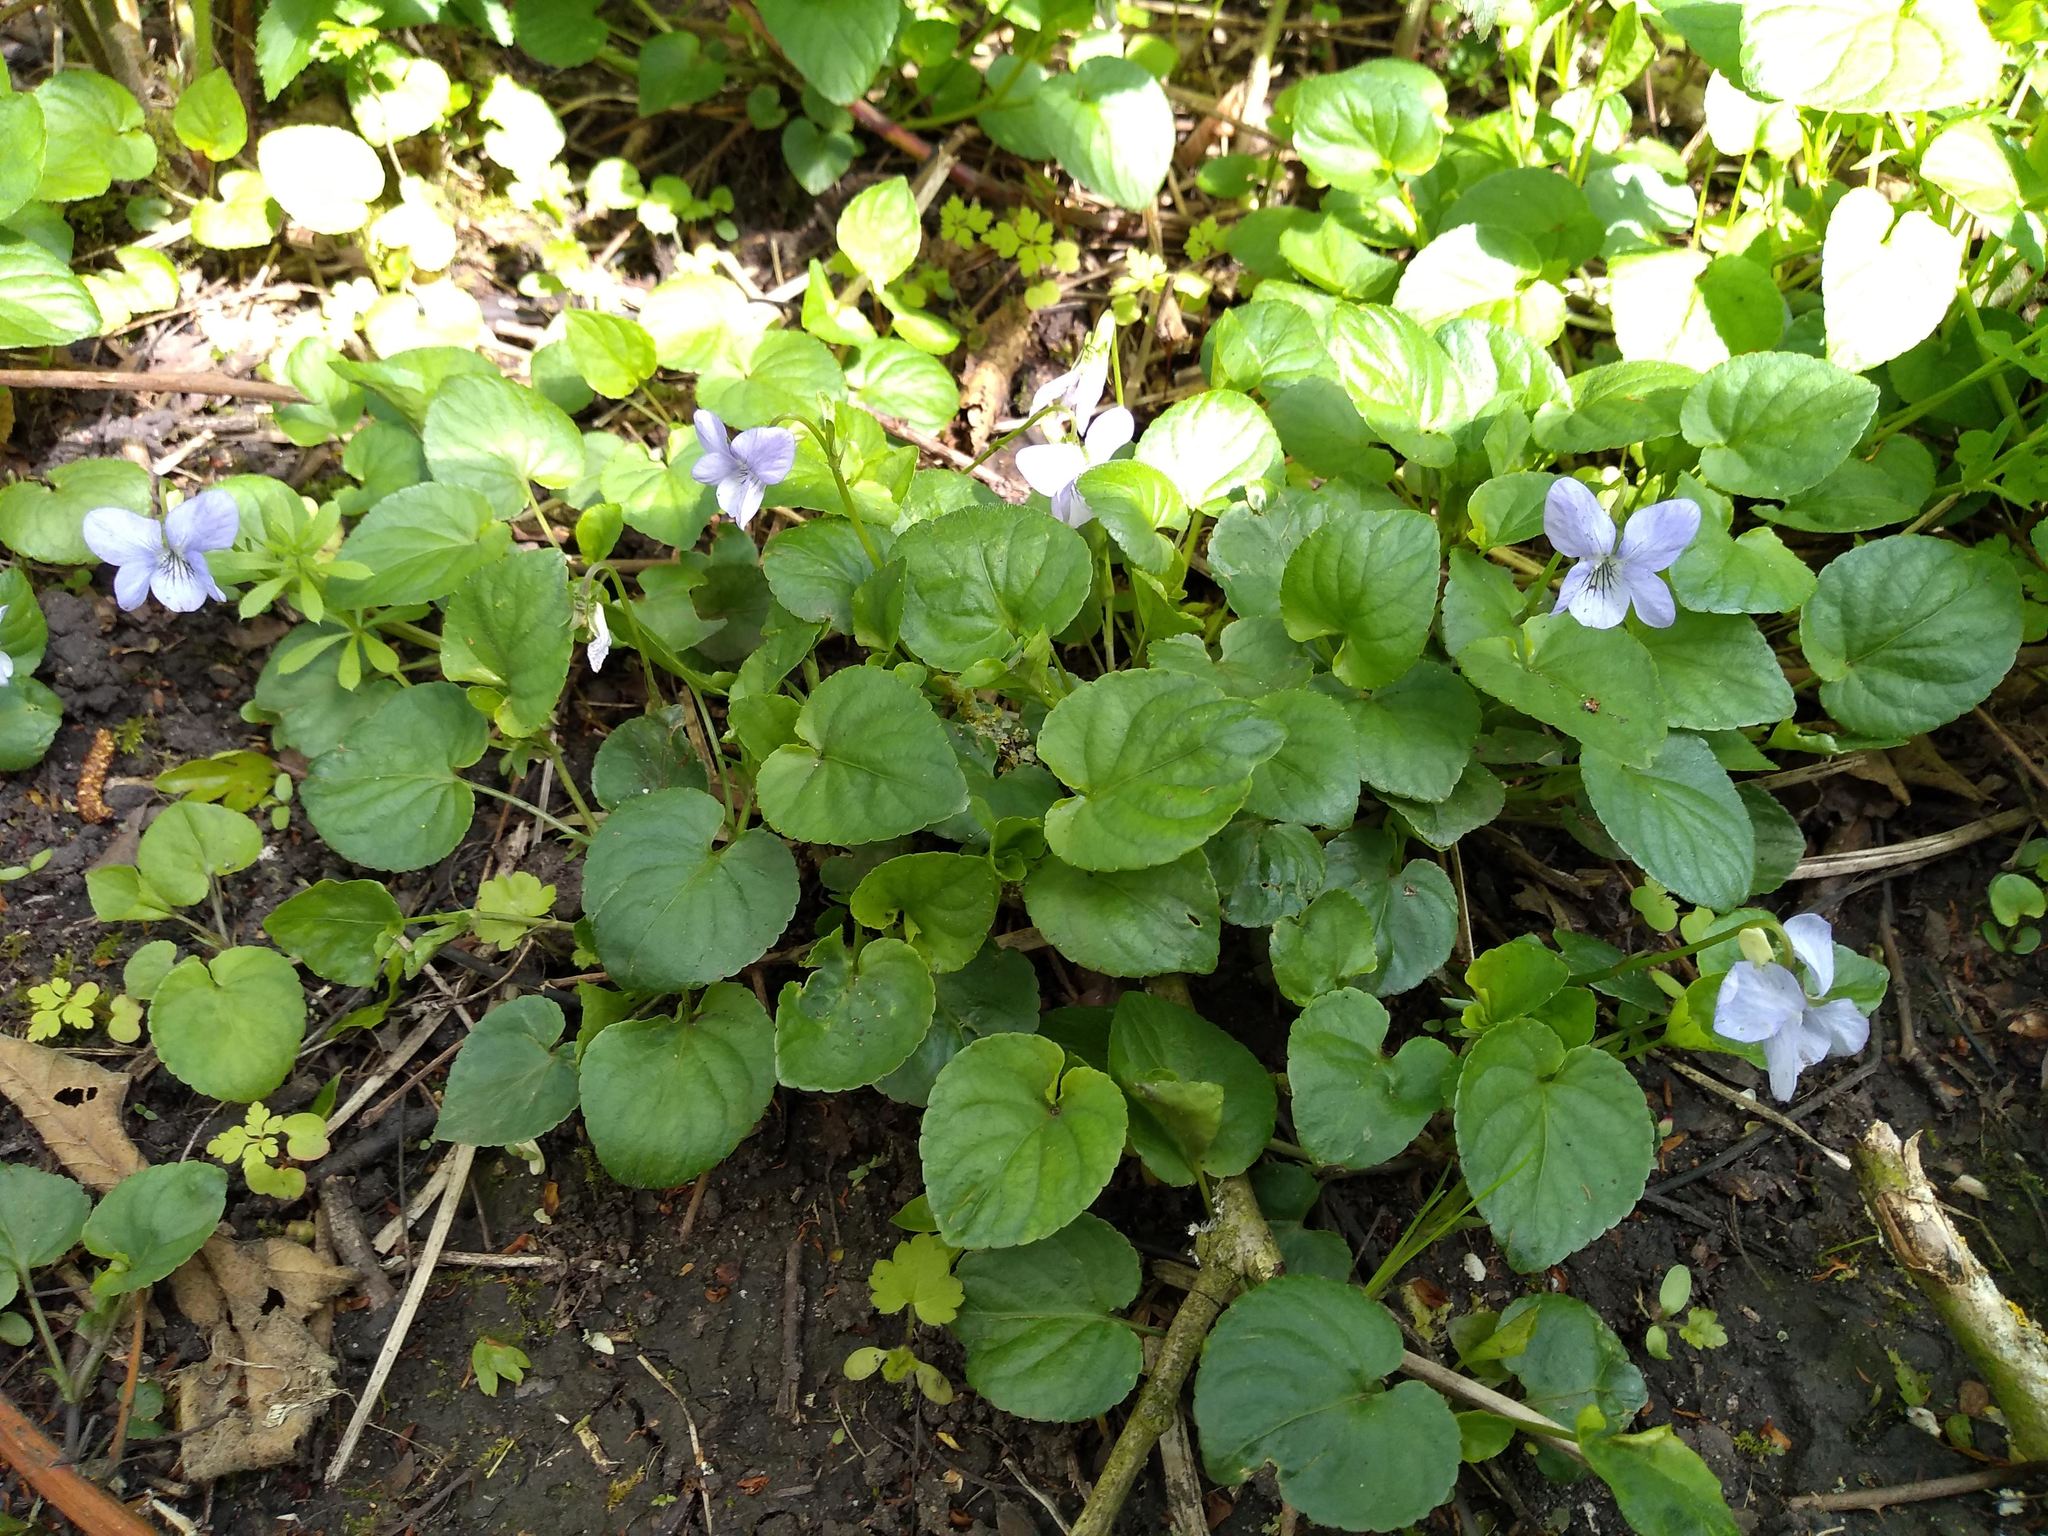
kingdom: Plantae
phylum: Tracheophyta
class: Magnoliopsida
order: Malpighiales
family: Violaceae
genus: Viola
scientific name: Viola riviniana
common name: Common dog-violet
